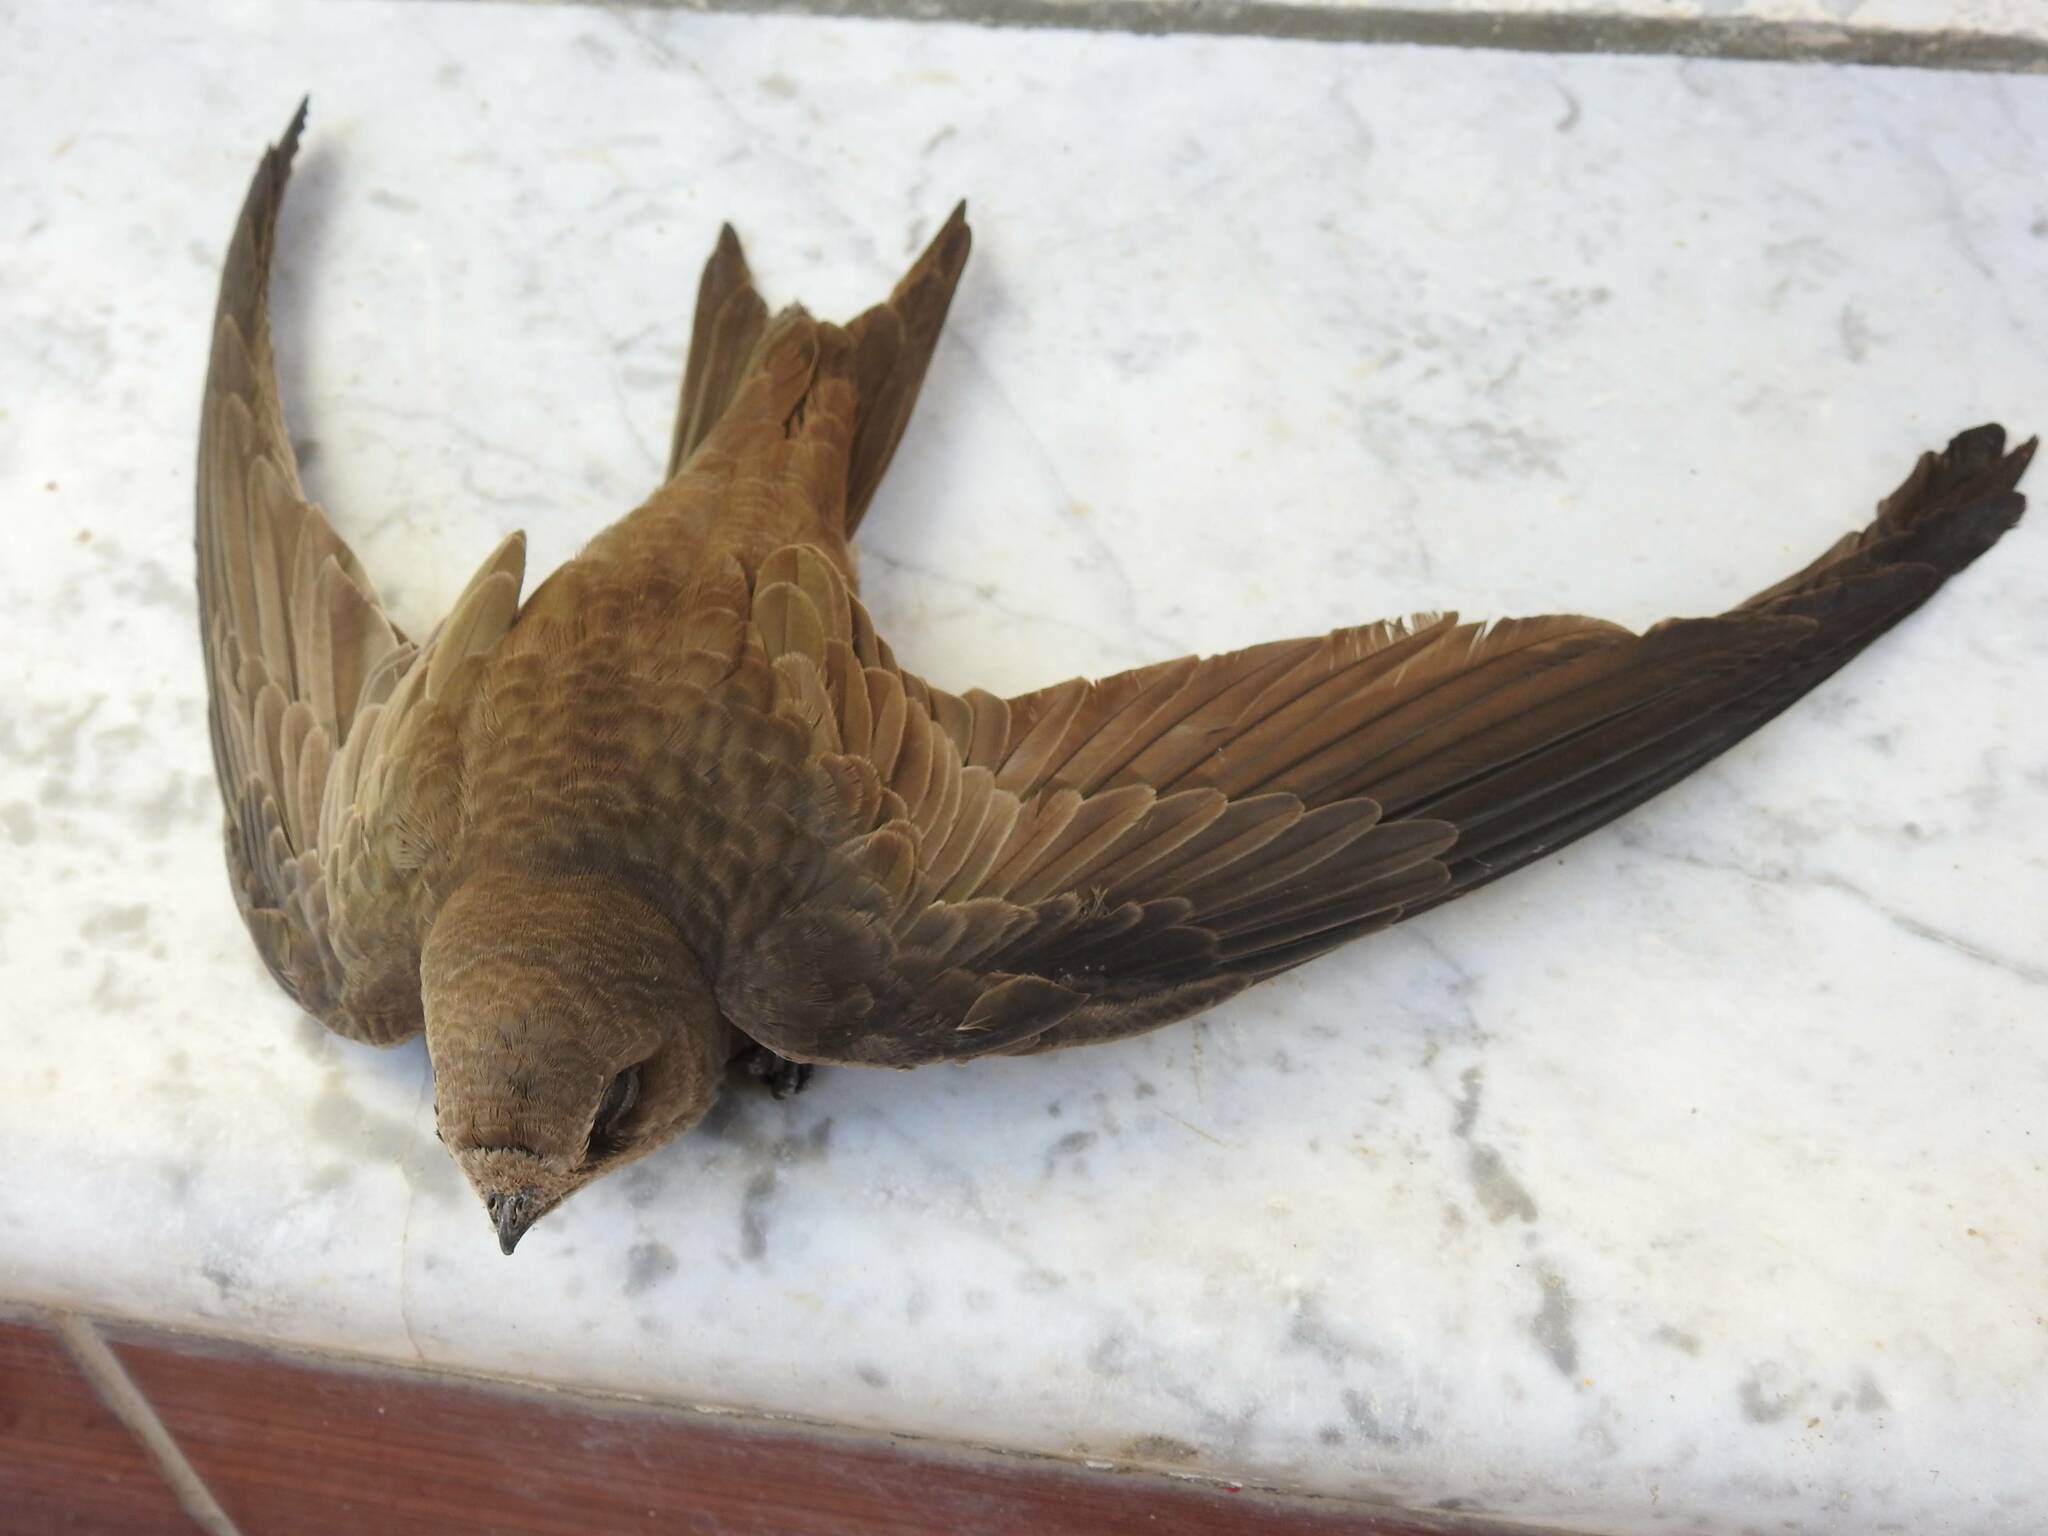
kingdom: Animalia
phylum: Chordata
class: Aves
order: Apodiformes
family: Apodidae
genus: Apus
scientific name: Apus pallidus
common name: Pallid swift
